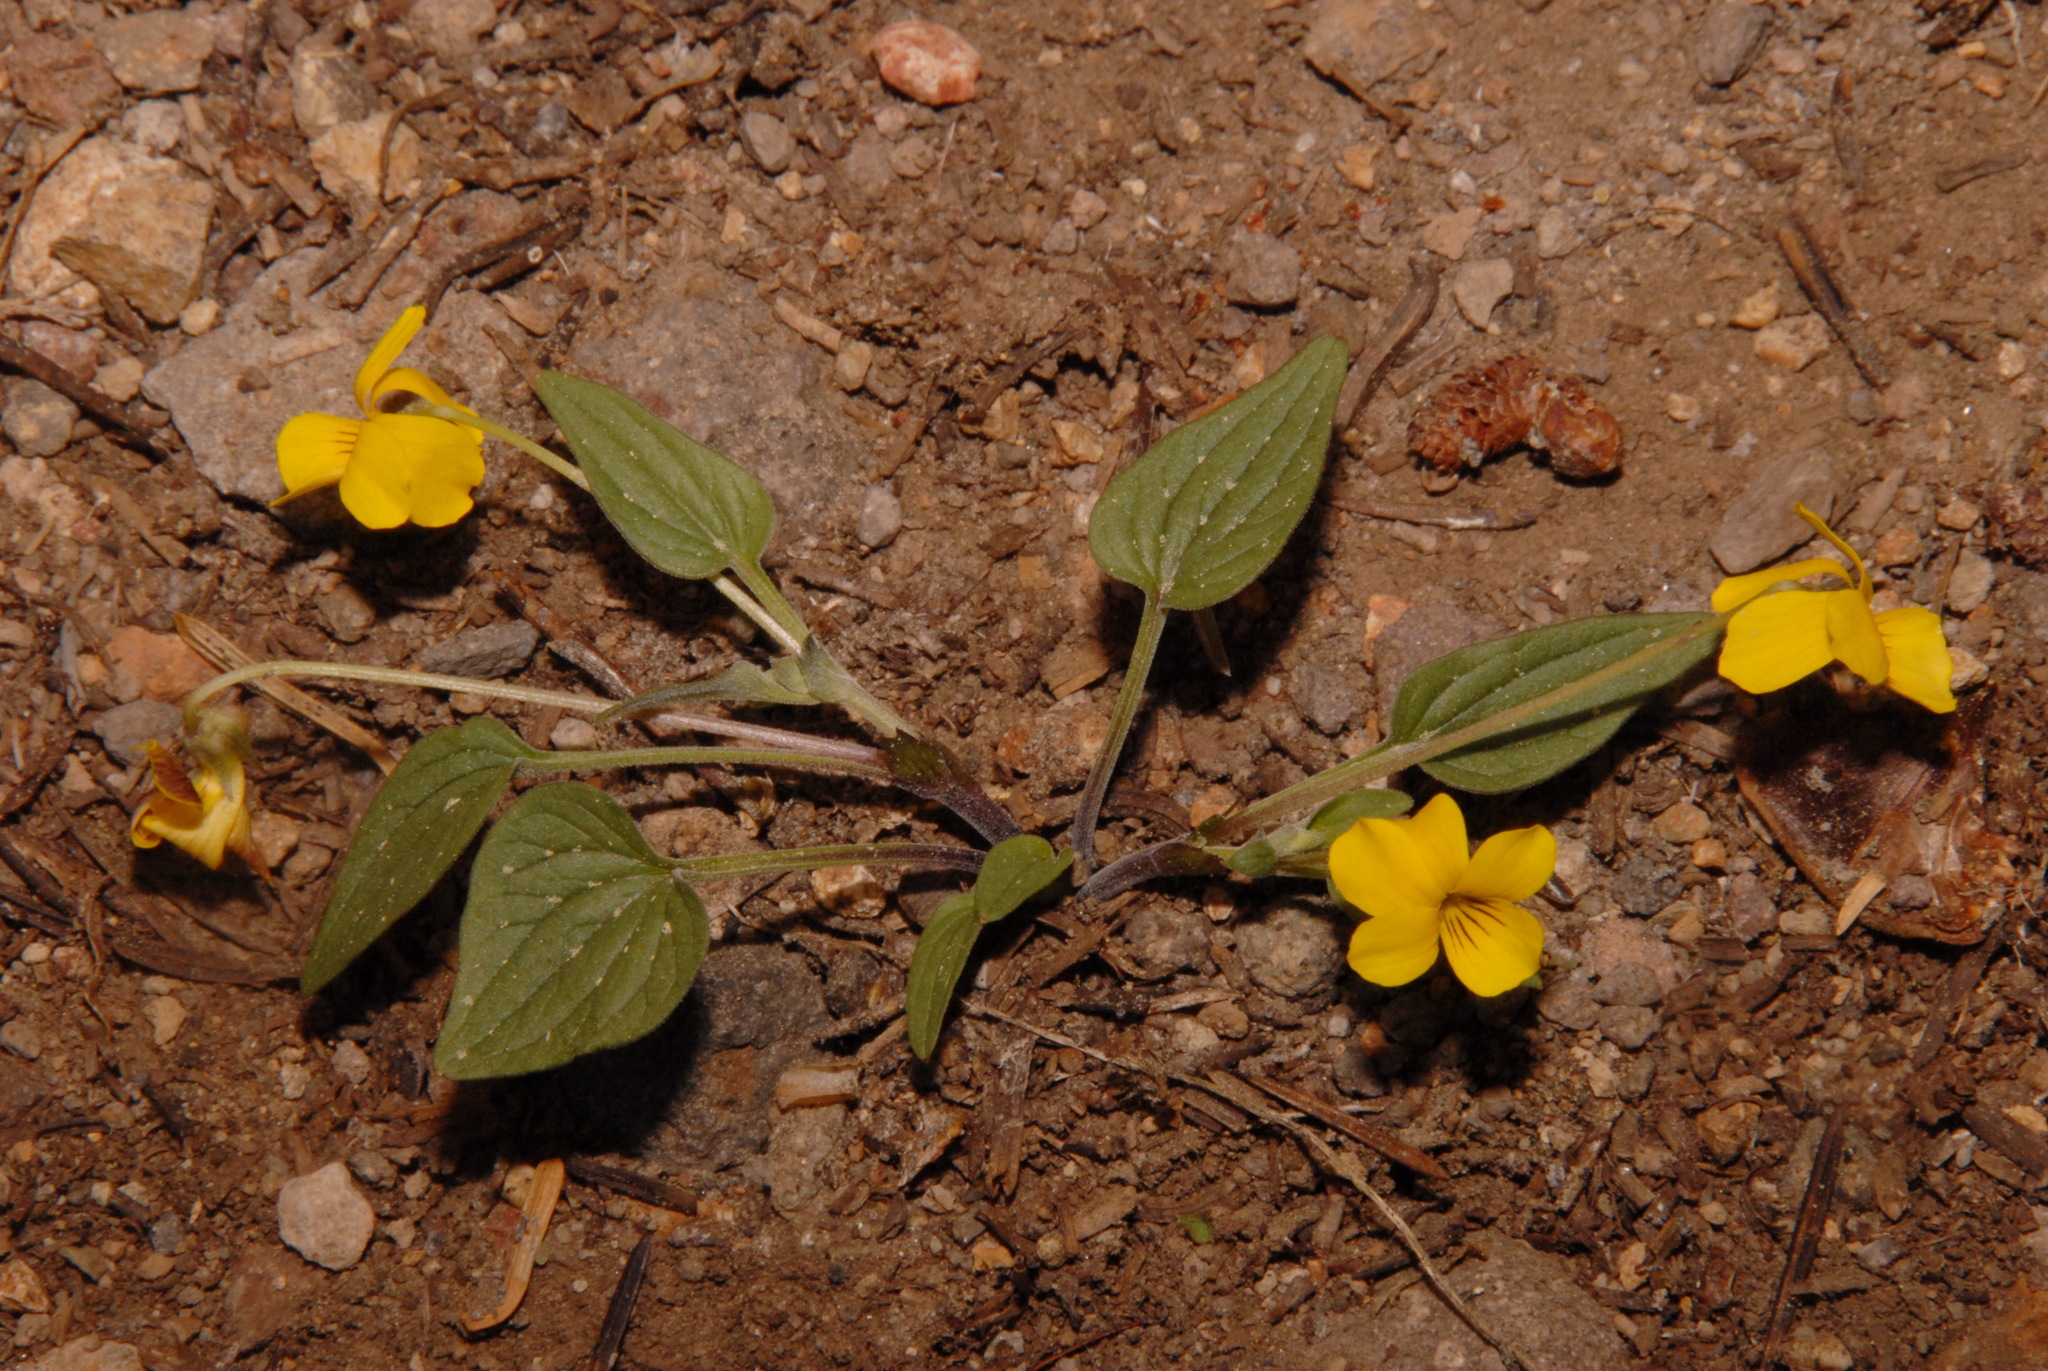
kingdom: Plantae
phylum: Tracheophyta
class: Magnoliopsida
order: Malpighiales
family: Violaceae
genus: Viola
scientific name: Viola purpurea
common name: Pine violet
